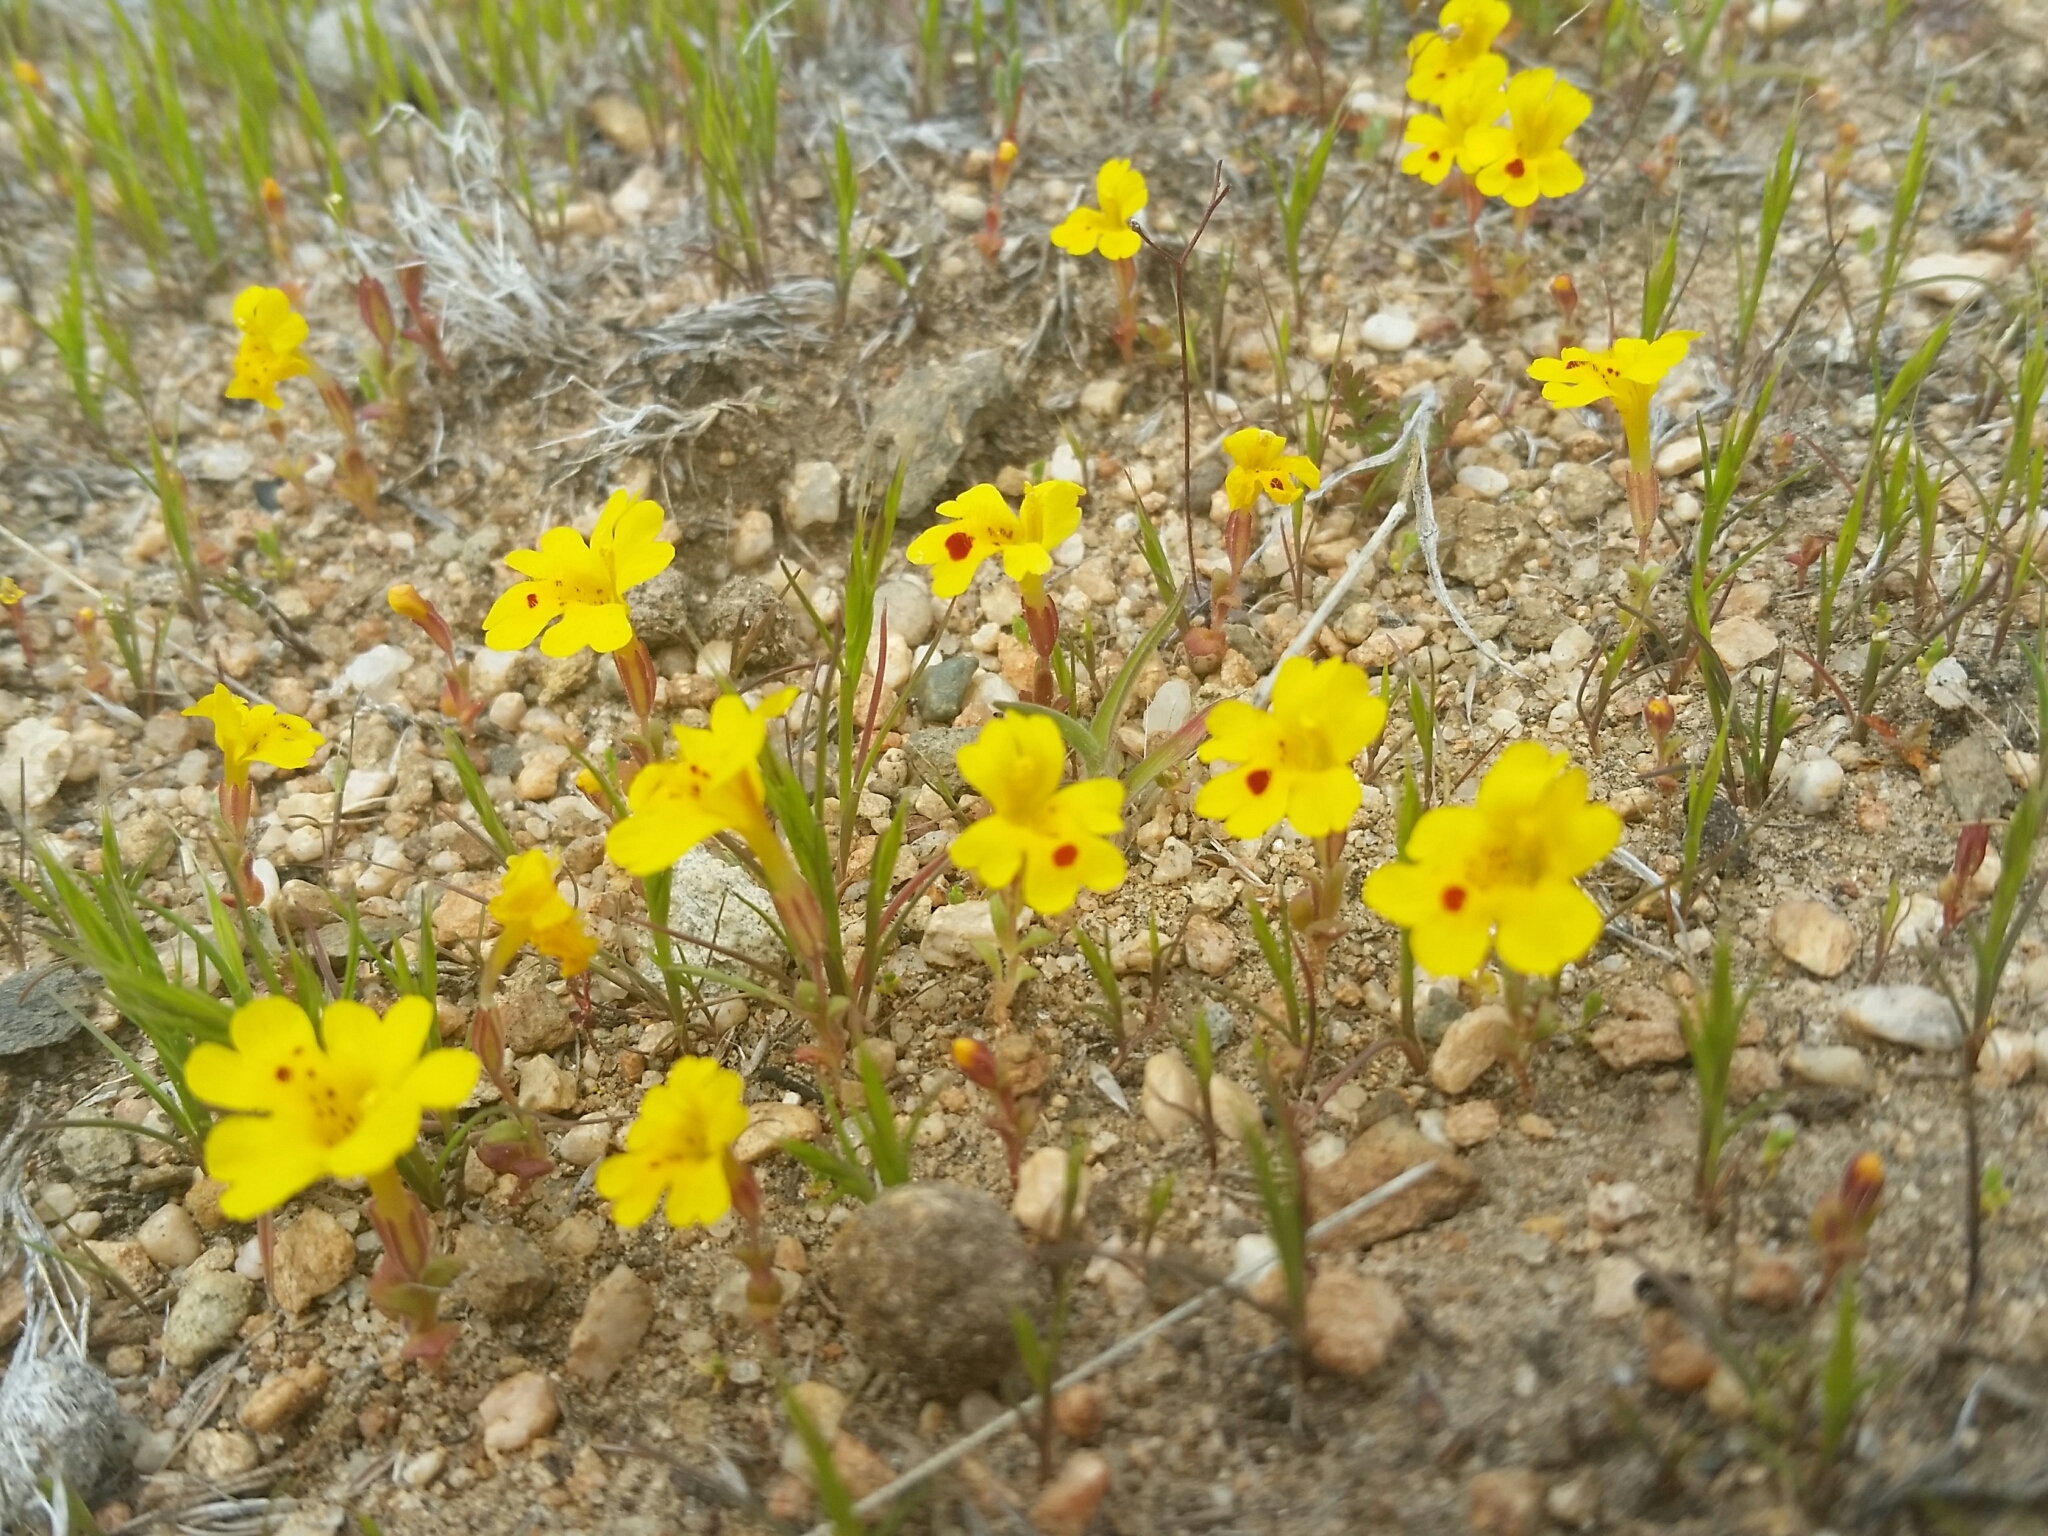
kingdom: Plantae
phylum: Tracheophyta
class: Magnoliopsida
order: Lamiales
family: Phrymaceae
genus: Erythranthe
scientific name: Erythranthe carsonensis
